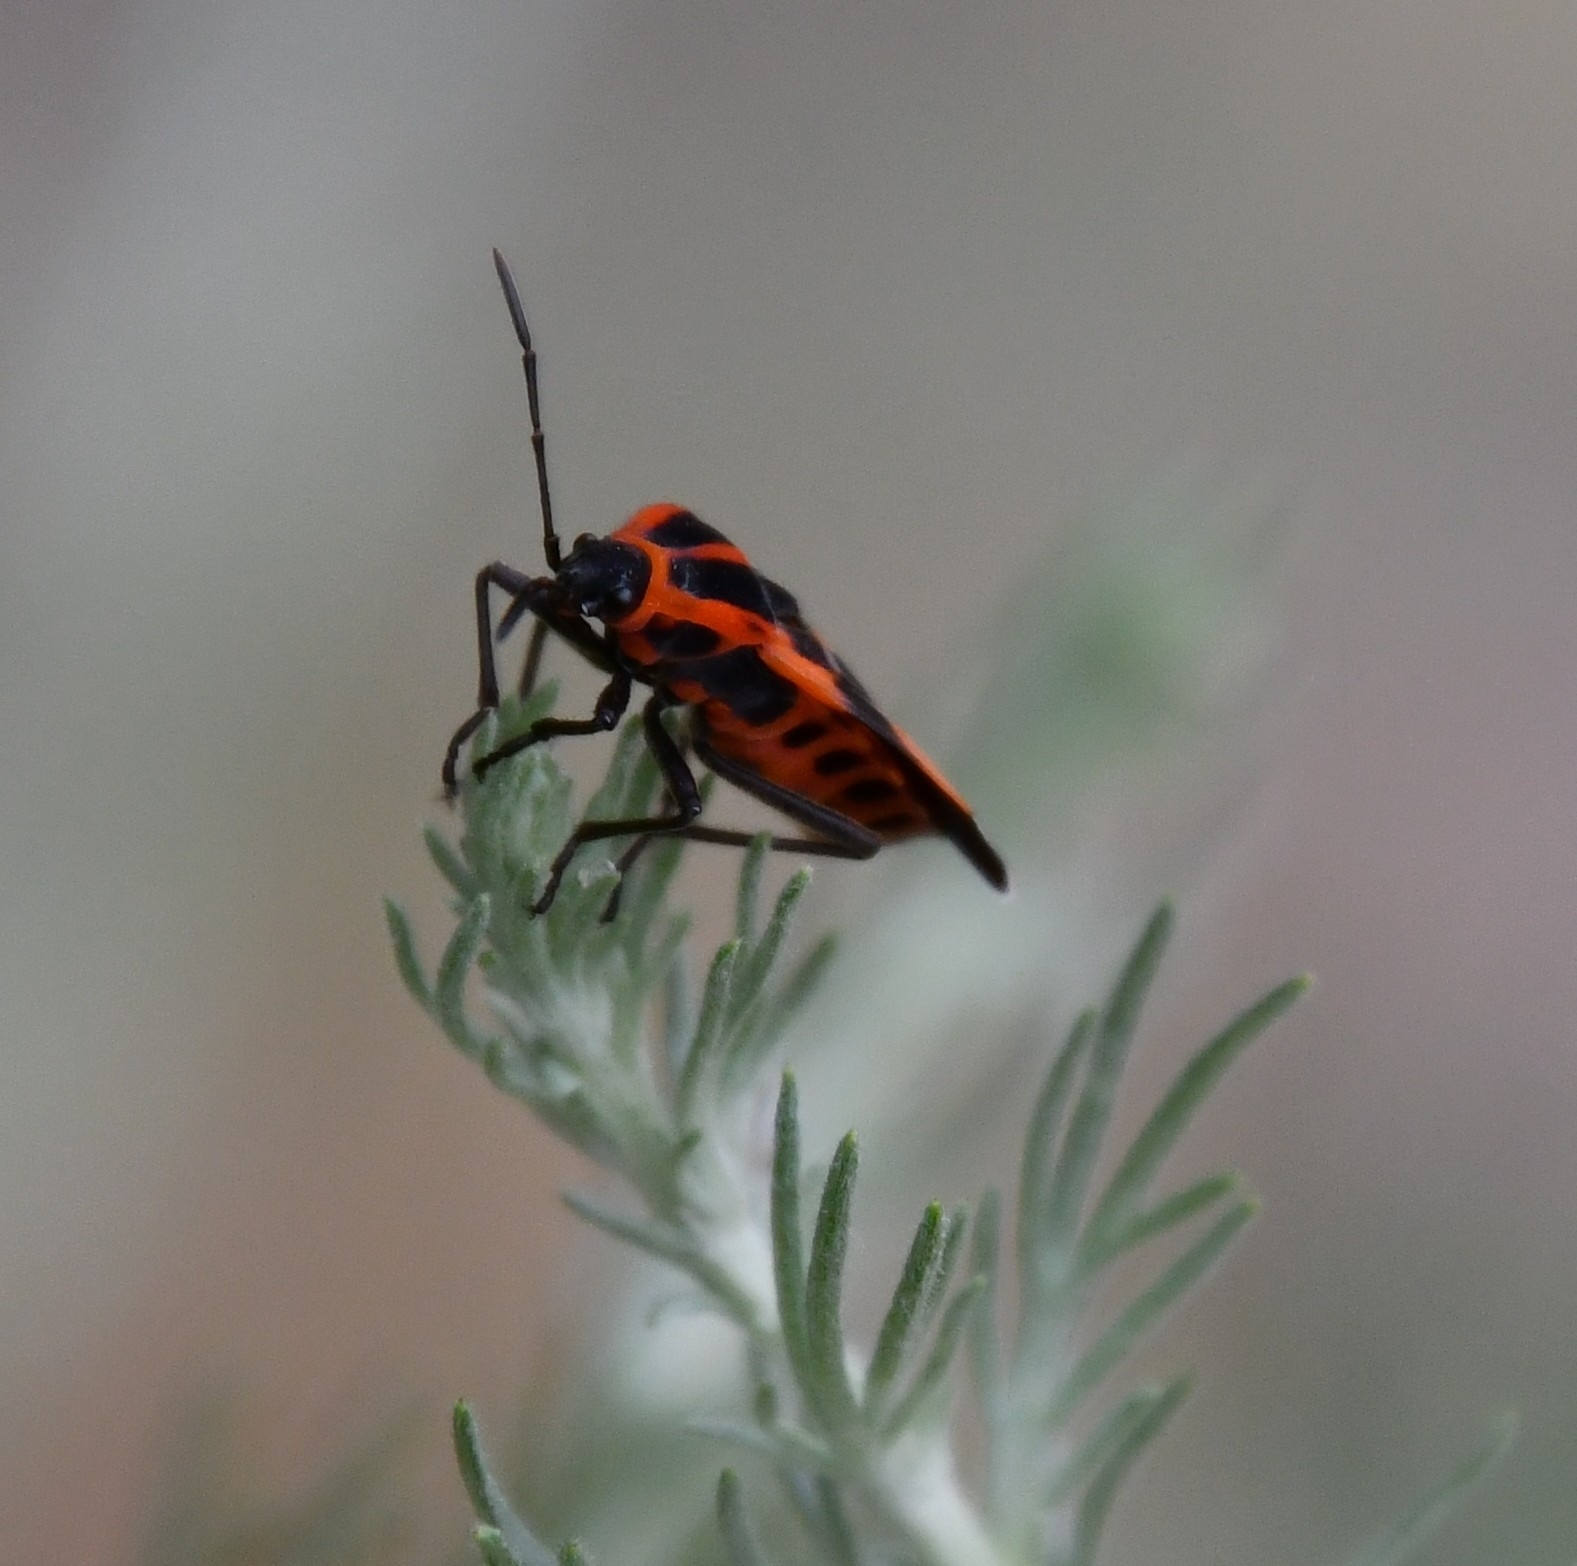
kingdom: Animalia
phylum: Arthropoda
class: Insecta
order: Hemiptera
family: Lygaeidae
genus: Tropidothorax
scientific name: Tropidothorax leucopterus
